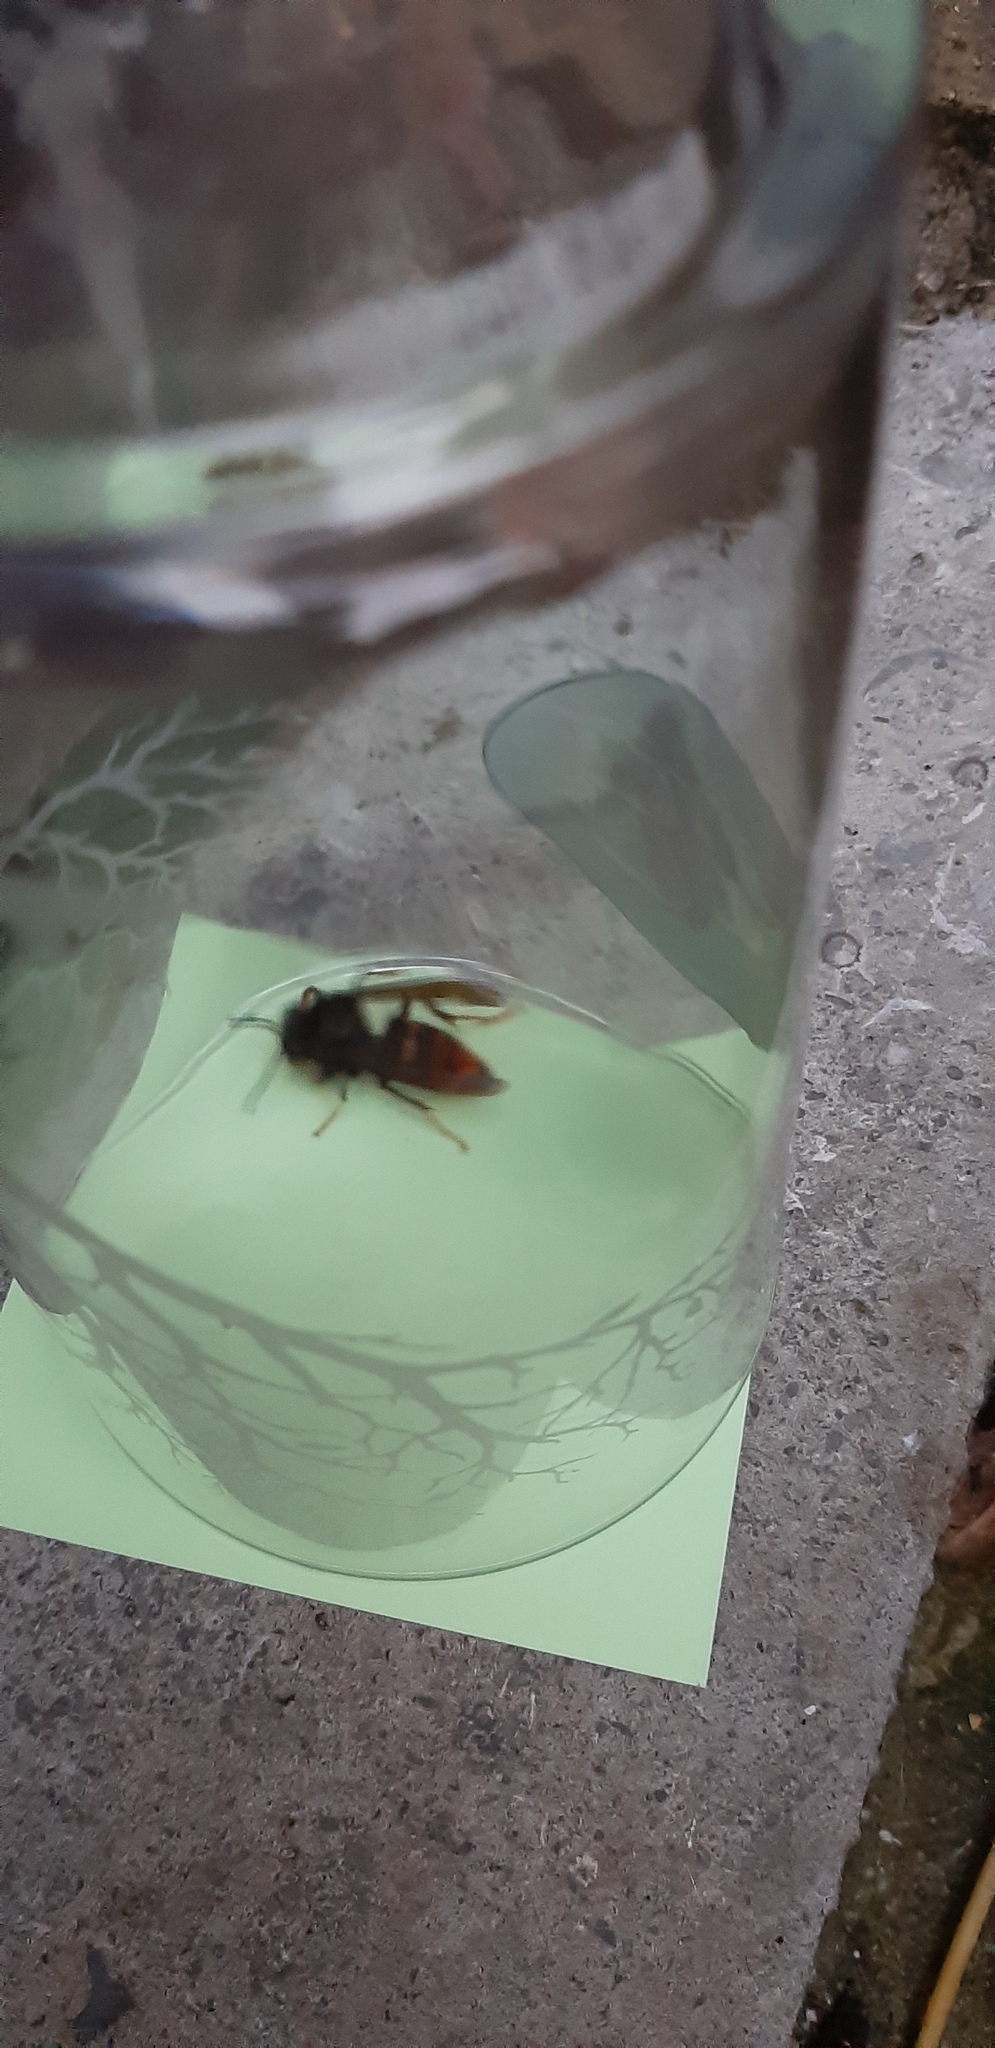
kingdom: Animalia
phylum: Arthropoda
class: Insecta
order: Hymenoptera
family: Vespidae
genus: Vespa
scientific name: Vespa velutina
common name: Asian hornet
